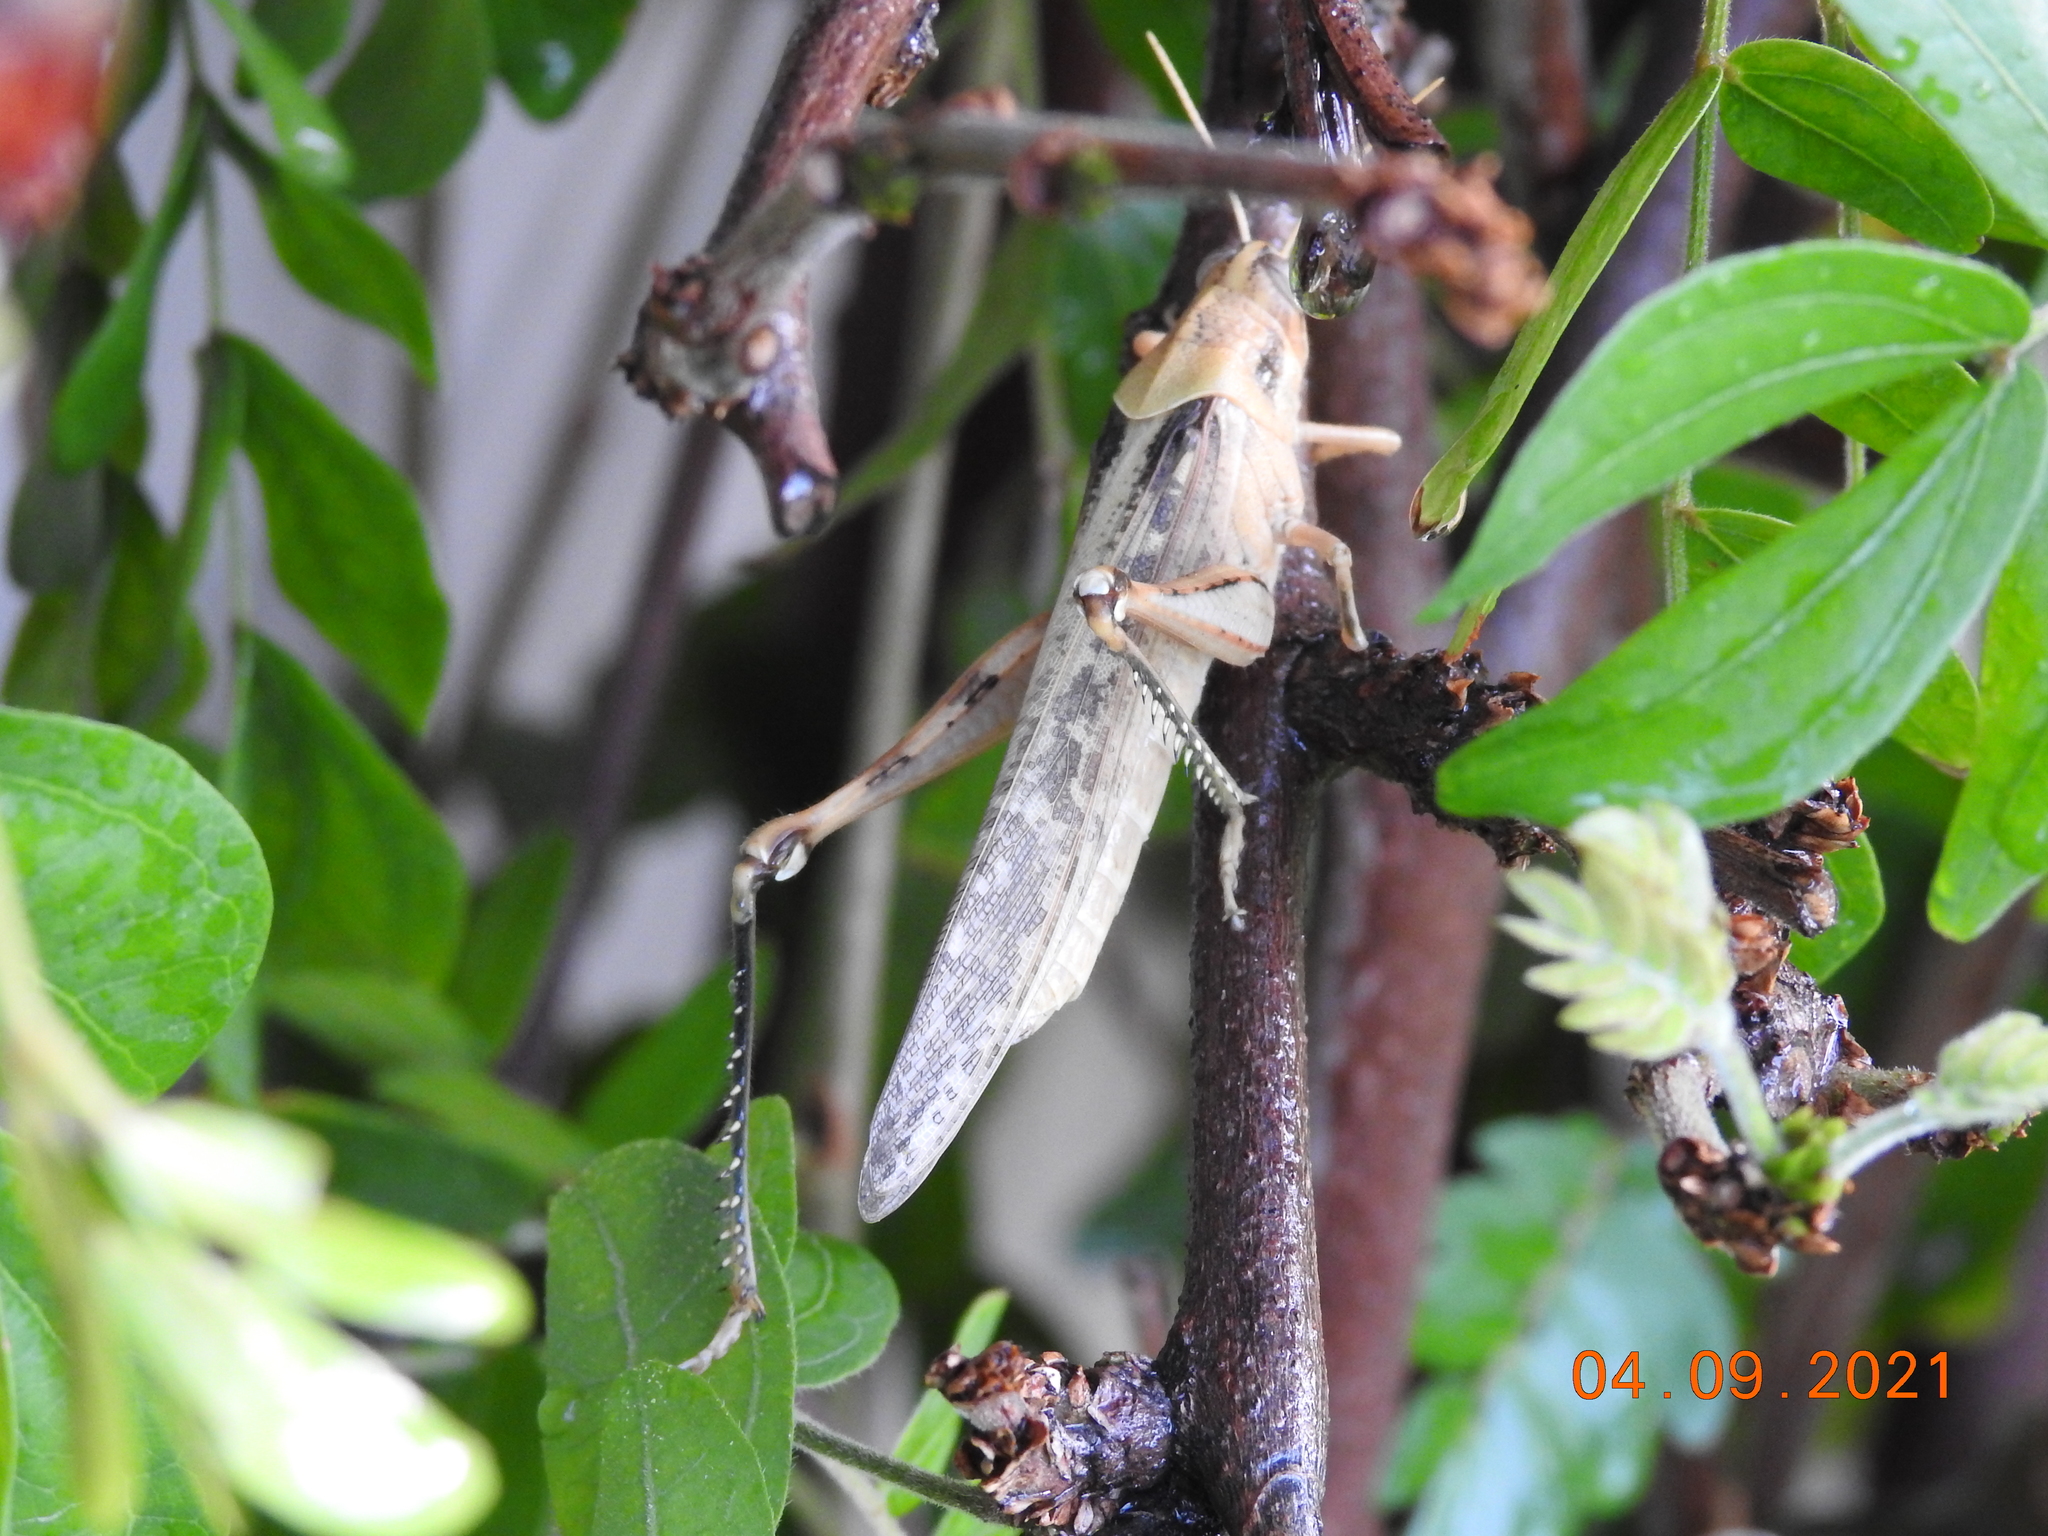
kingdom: Animalia
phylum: Arthropoda
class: Insecta
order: Orthoptera
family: Acrididae
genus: Schistocerca
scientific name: Schistocerca nitens
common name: Vagrant grasshopper
